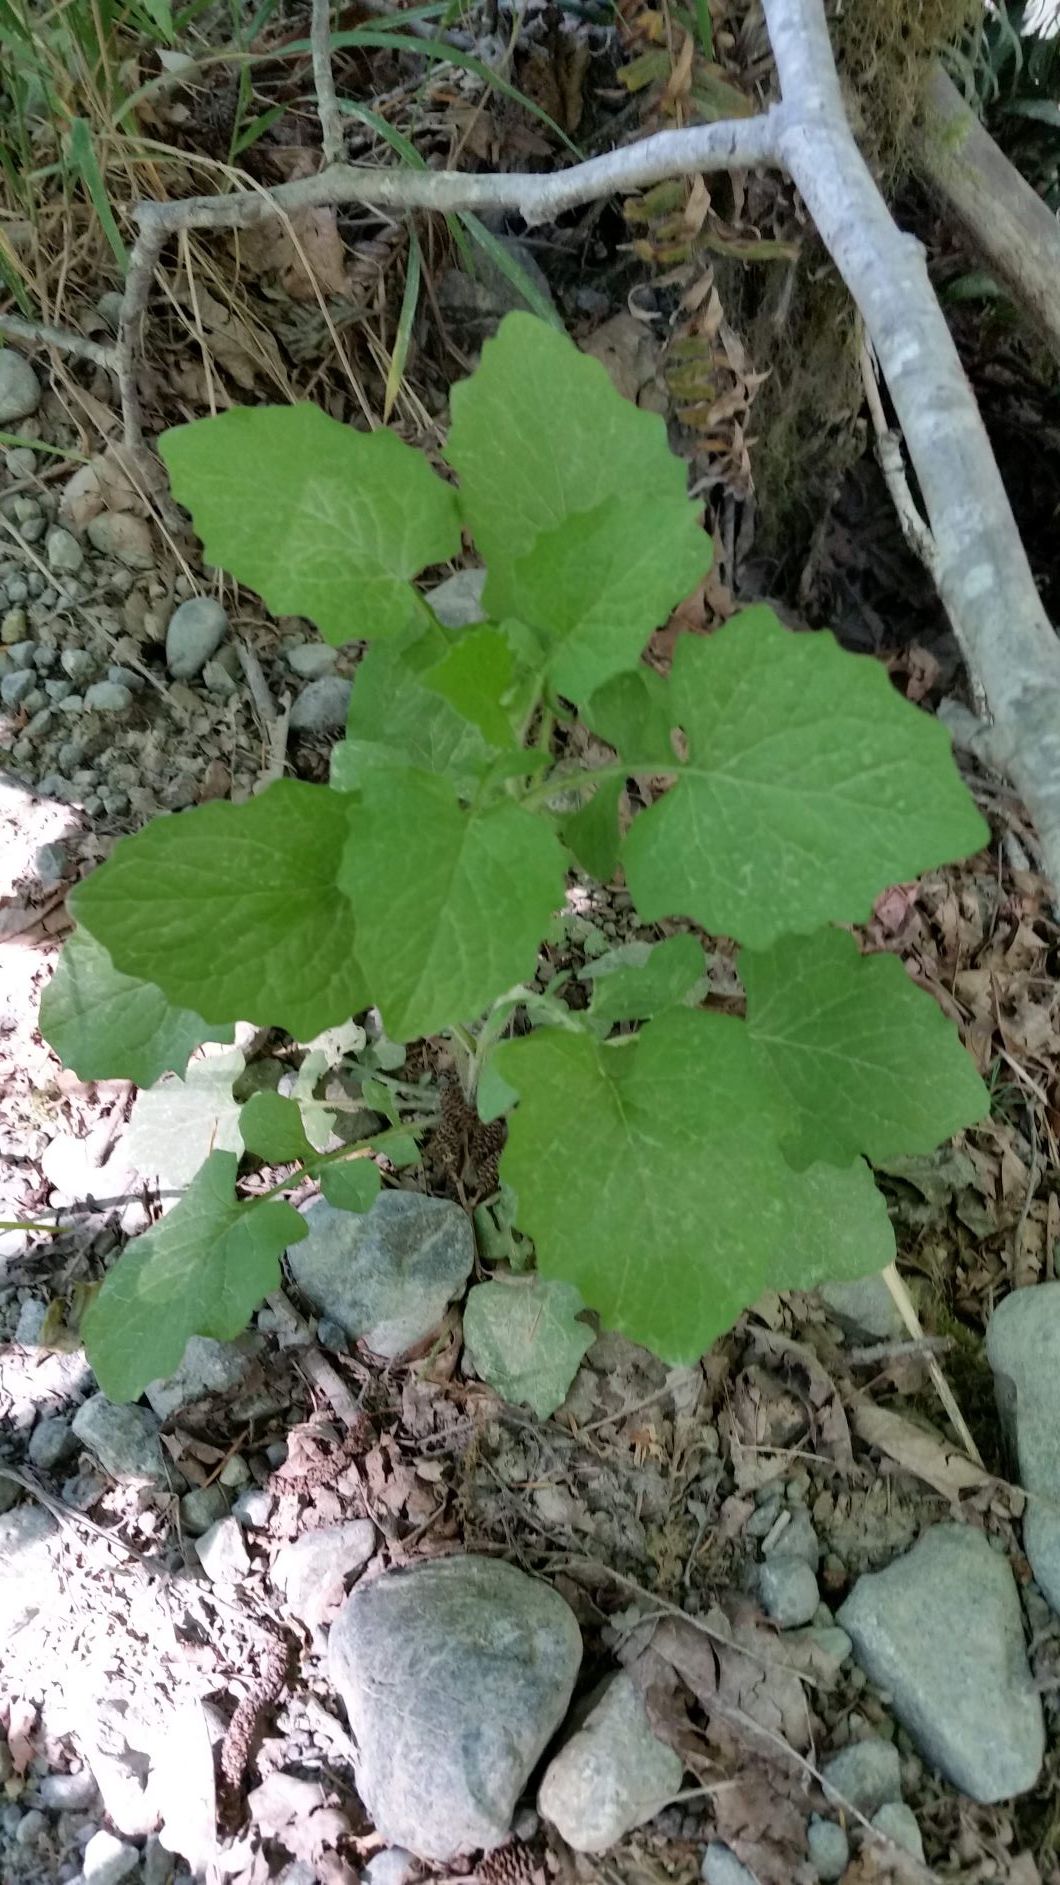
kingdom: Plantae
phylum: Tracheophyta
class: Magnoliopsida
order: Asterales
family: Asteraceae
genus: Lapsana
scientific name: Lapsana communis
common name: Nipplewort
